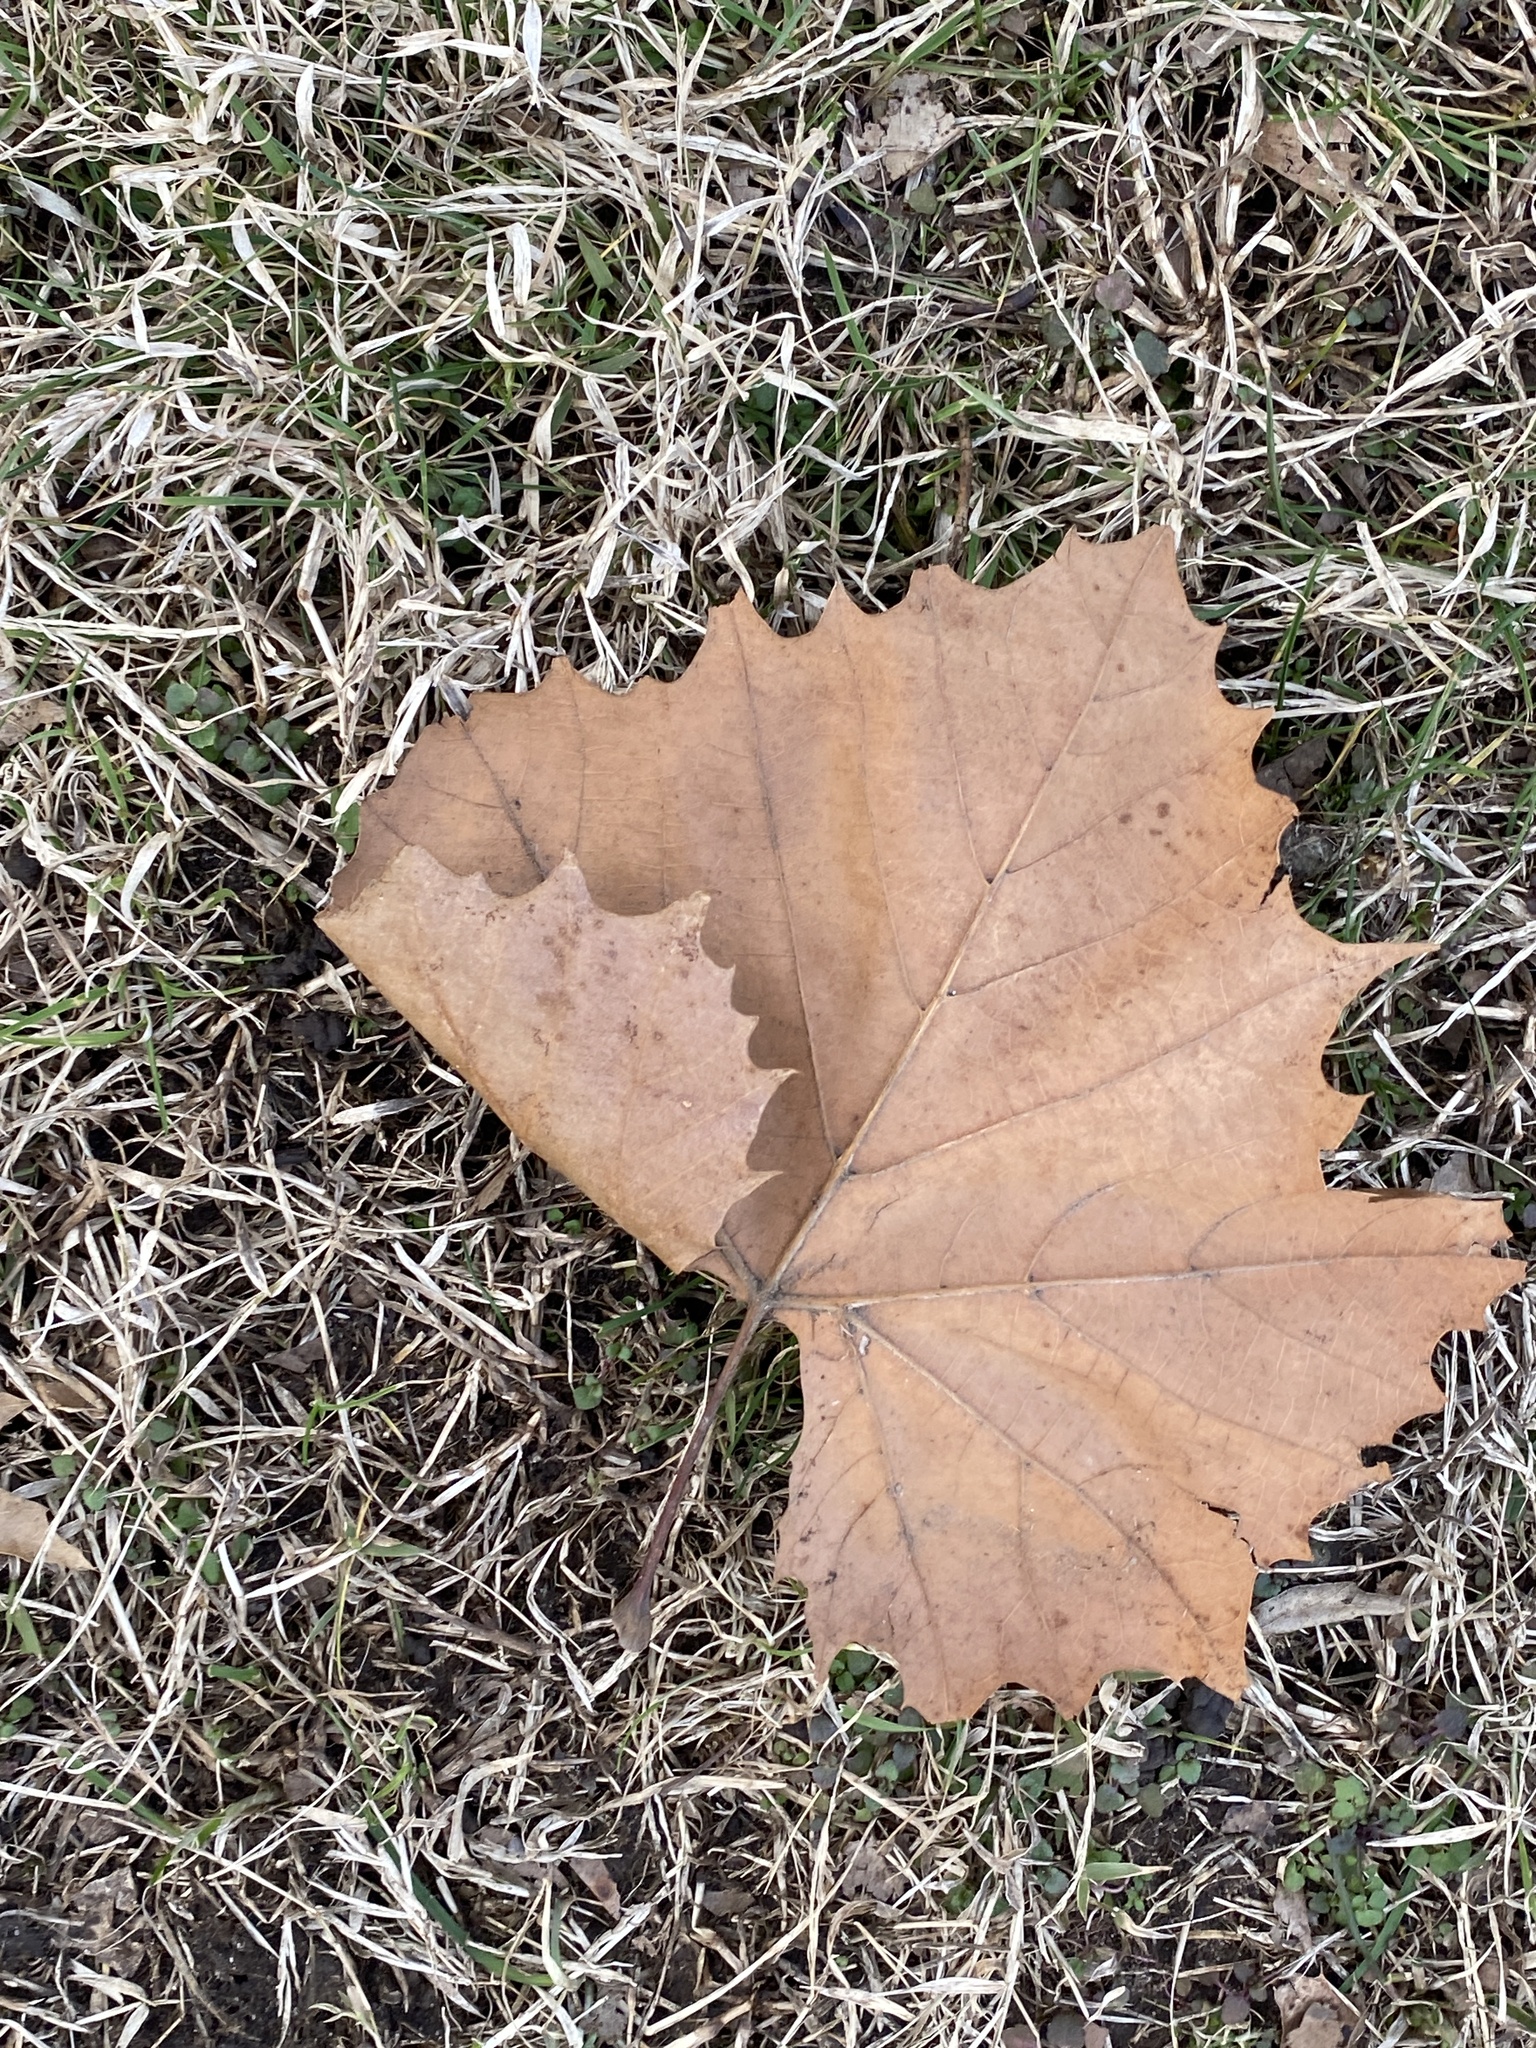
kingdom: Plantae
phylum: Tracheophyta
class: Magnoliopsida
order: Proteales
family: Platanaceae
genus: Platanus
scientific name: Platanus occidentalis
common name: American sycamore
